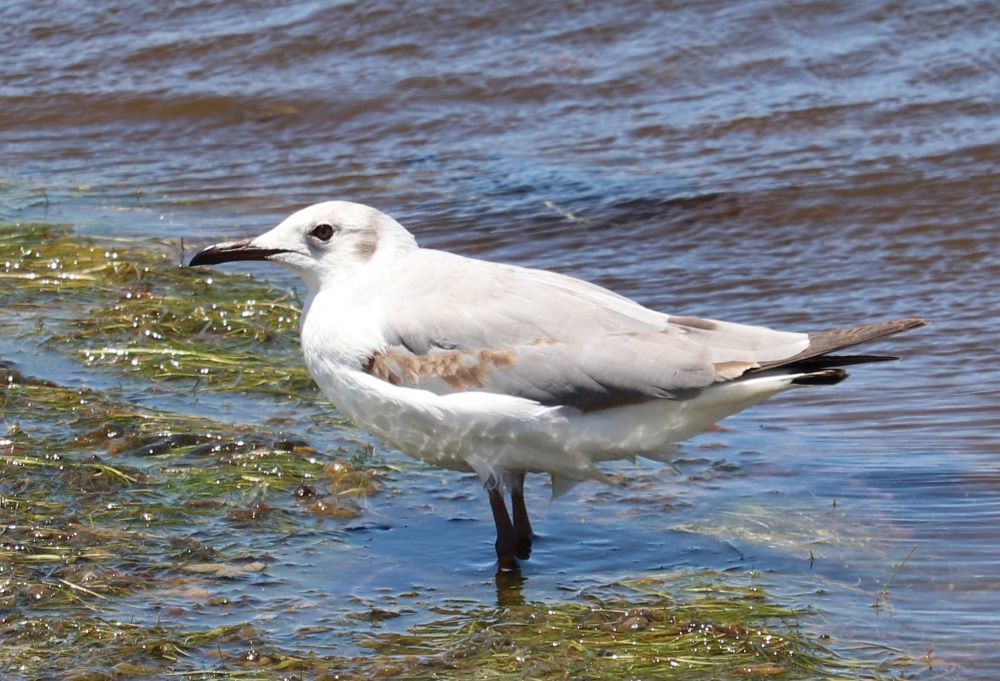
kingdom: Animalia
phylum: Chordata
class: Aves
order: Charadriiformes
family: Laridae
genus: Chroicocephalus
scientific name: Chroicocephalus cirrocephalus
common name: Grey-headed gull
